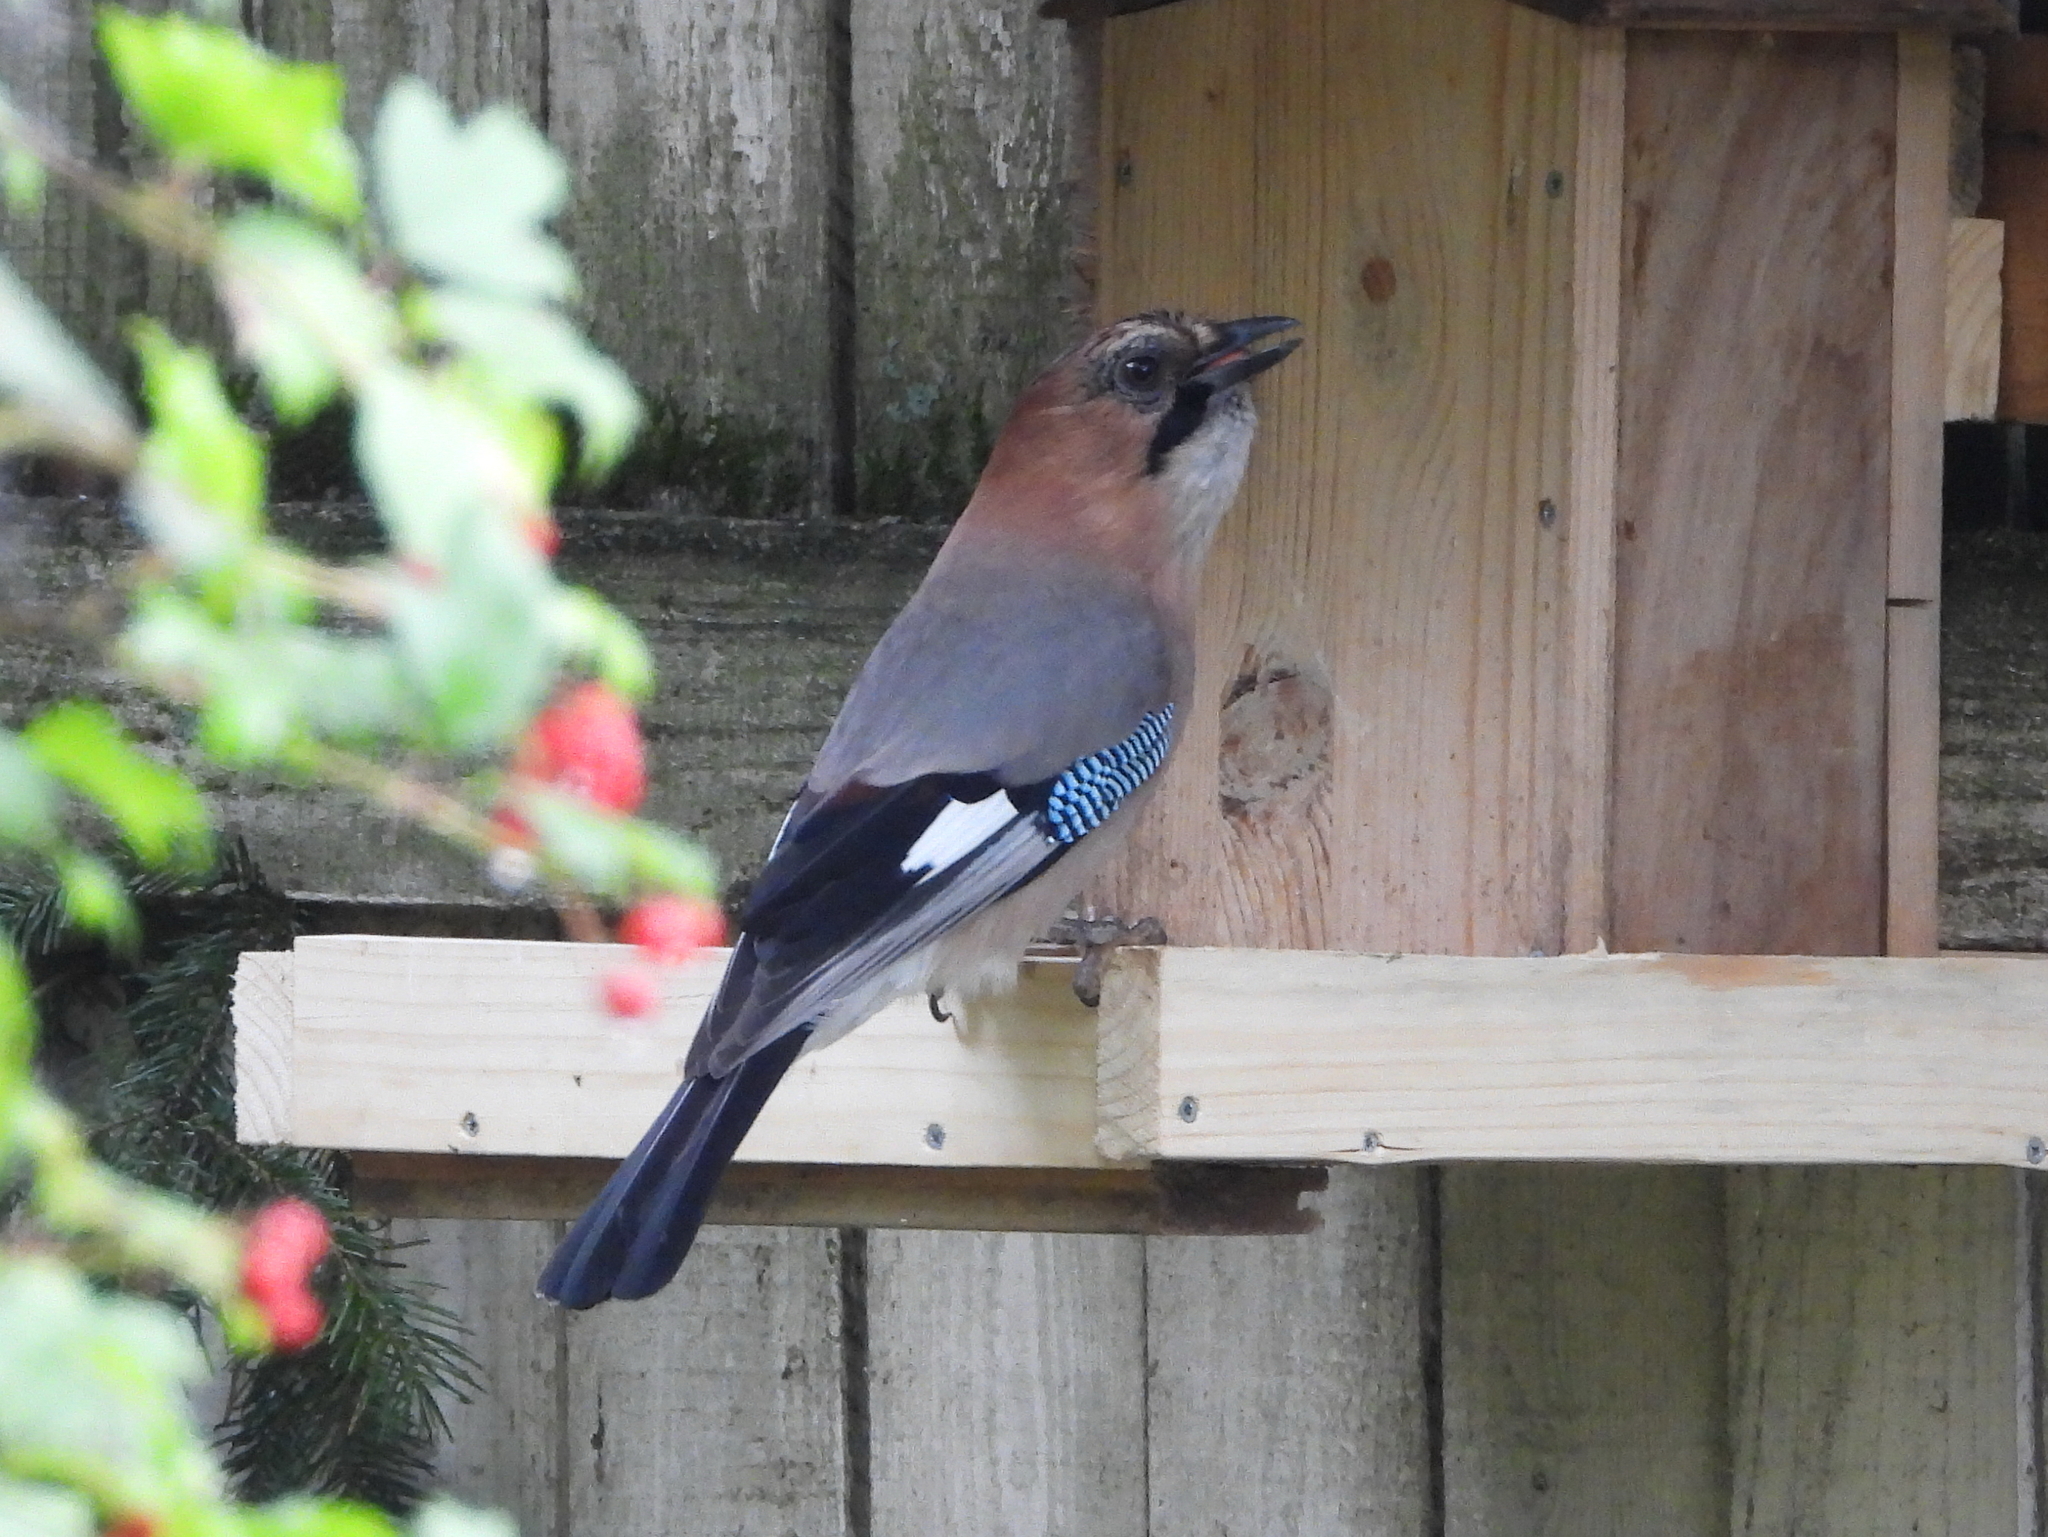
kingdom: Animalia
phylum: Chordata
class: Aves
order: Passeriformes
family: Corvidae
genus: Garrulus
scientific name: Garrulus glandarius
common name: Eurasian jay
